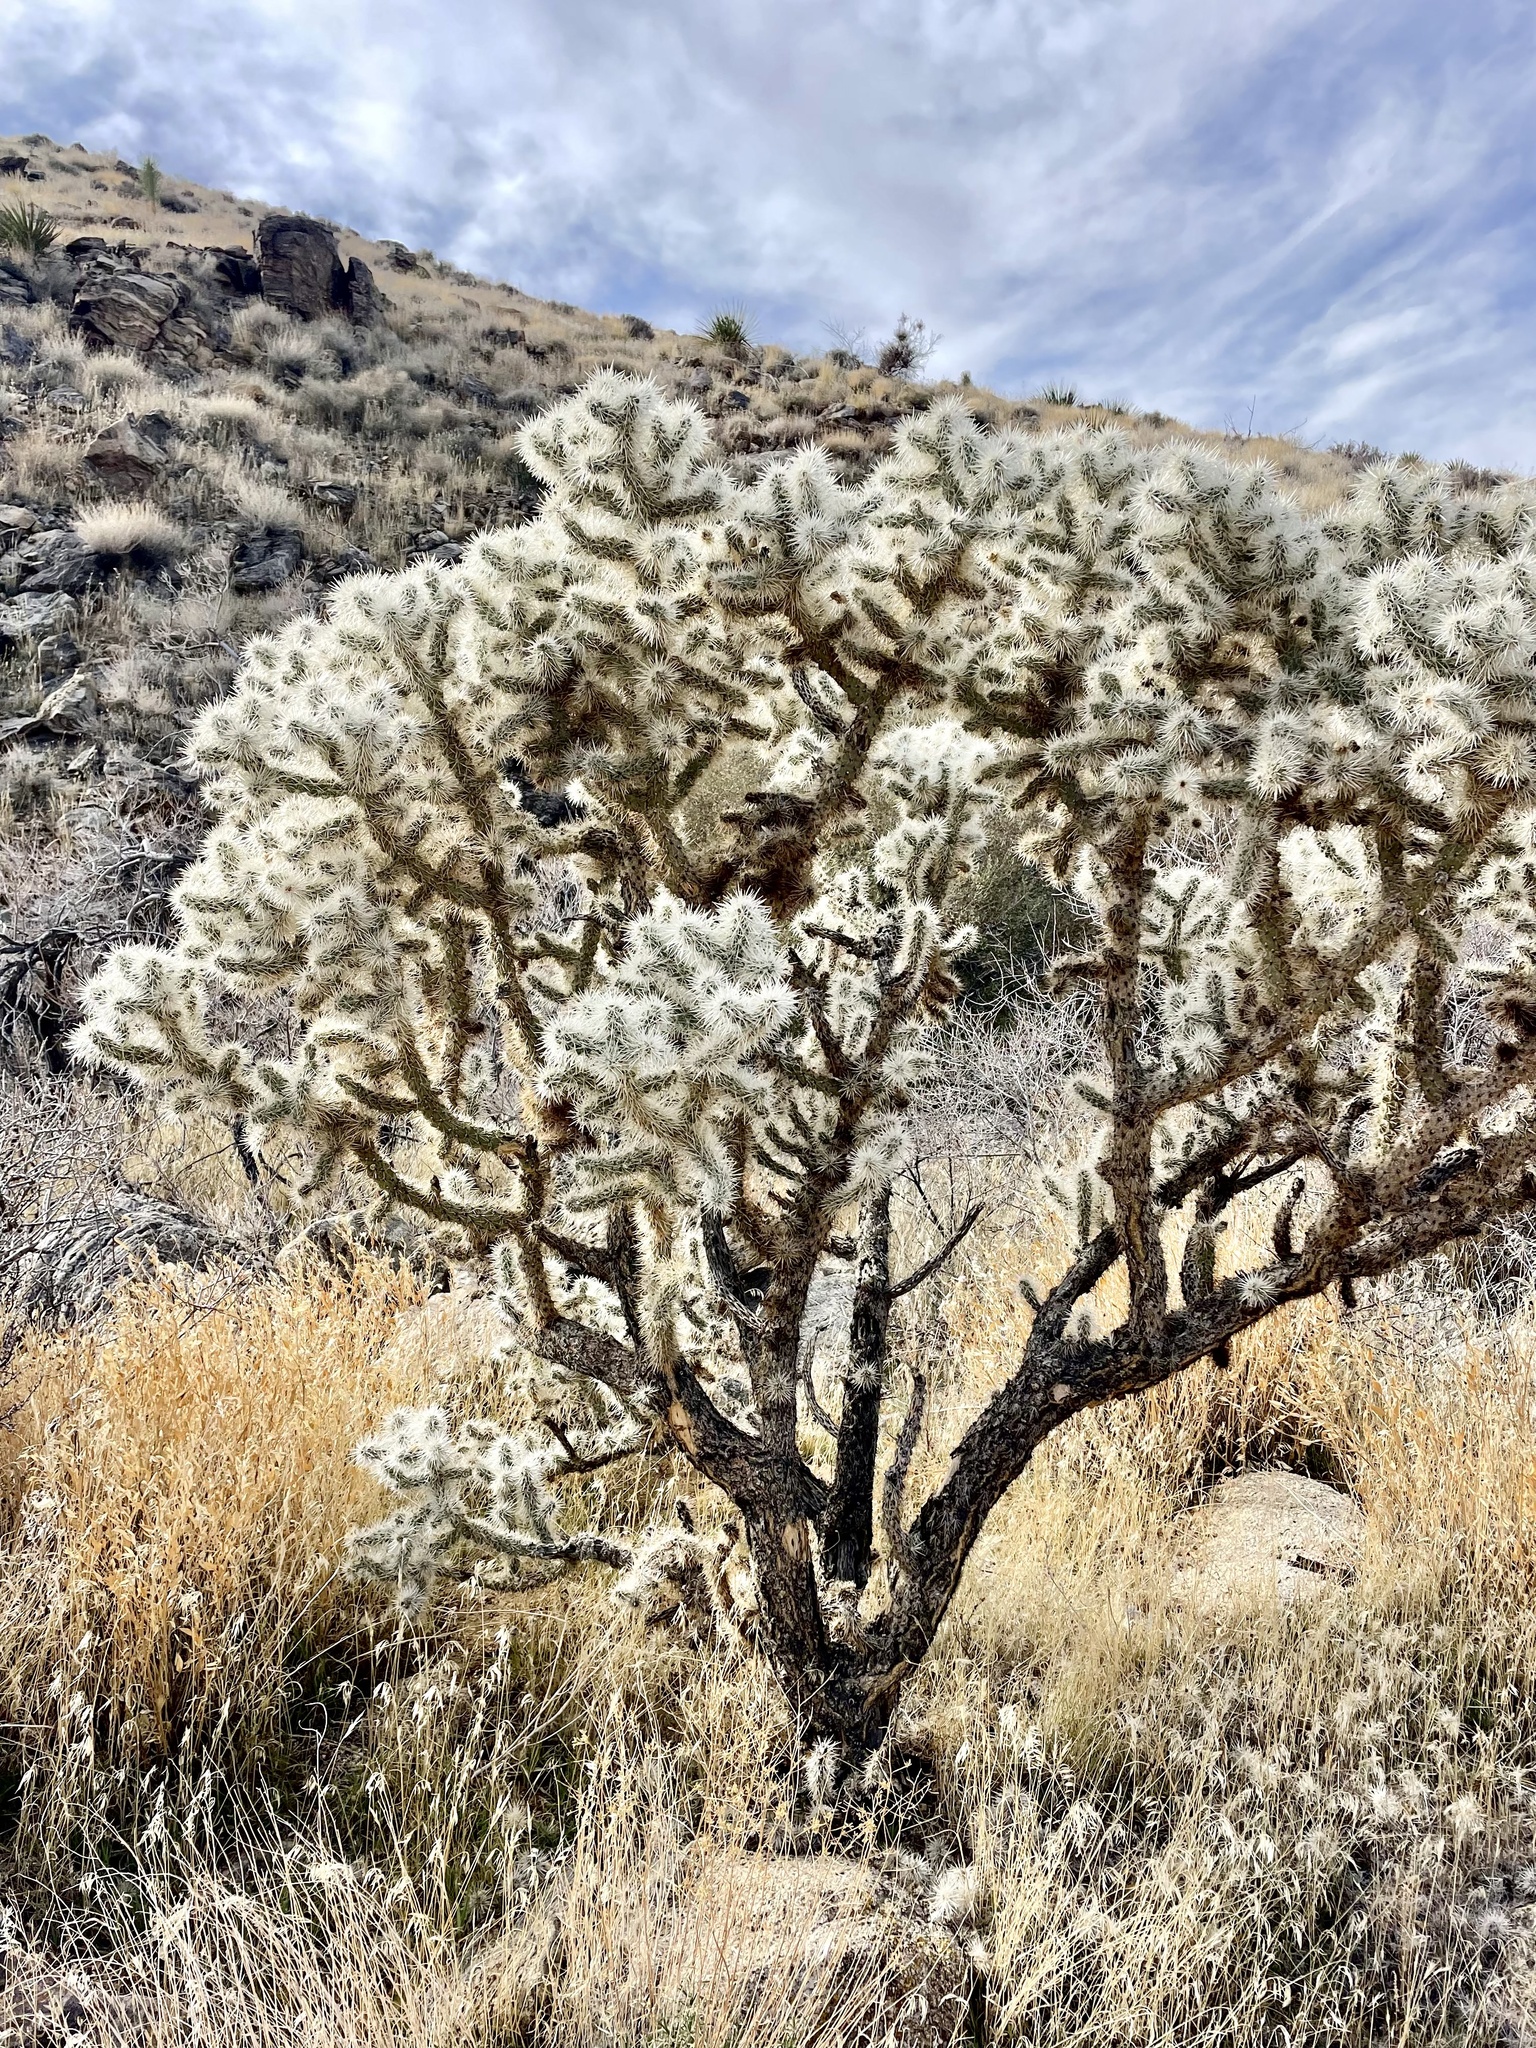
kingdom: Plantae
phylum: Tracheophyta
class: Magnoliopsida
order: Caryophyllales
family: Cactaceae
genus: Cylindropuntia
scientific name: Cylindropuntia echinocarpa
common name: Ground cholla
